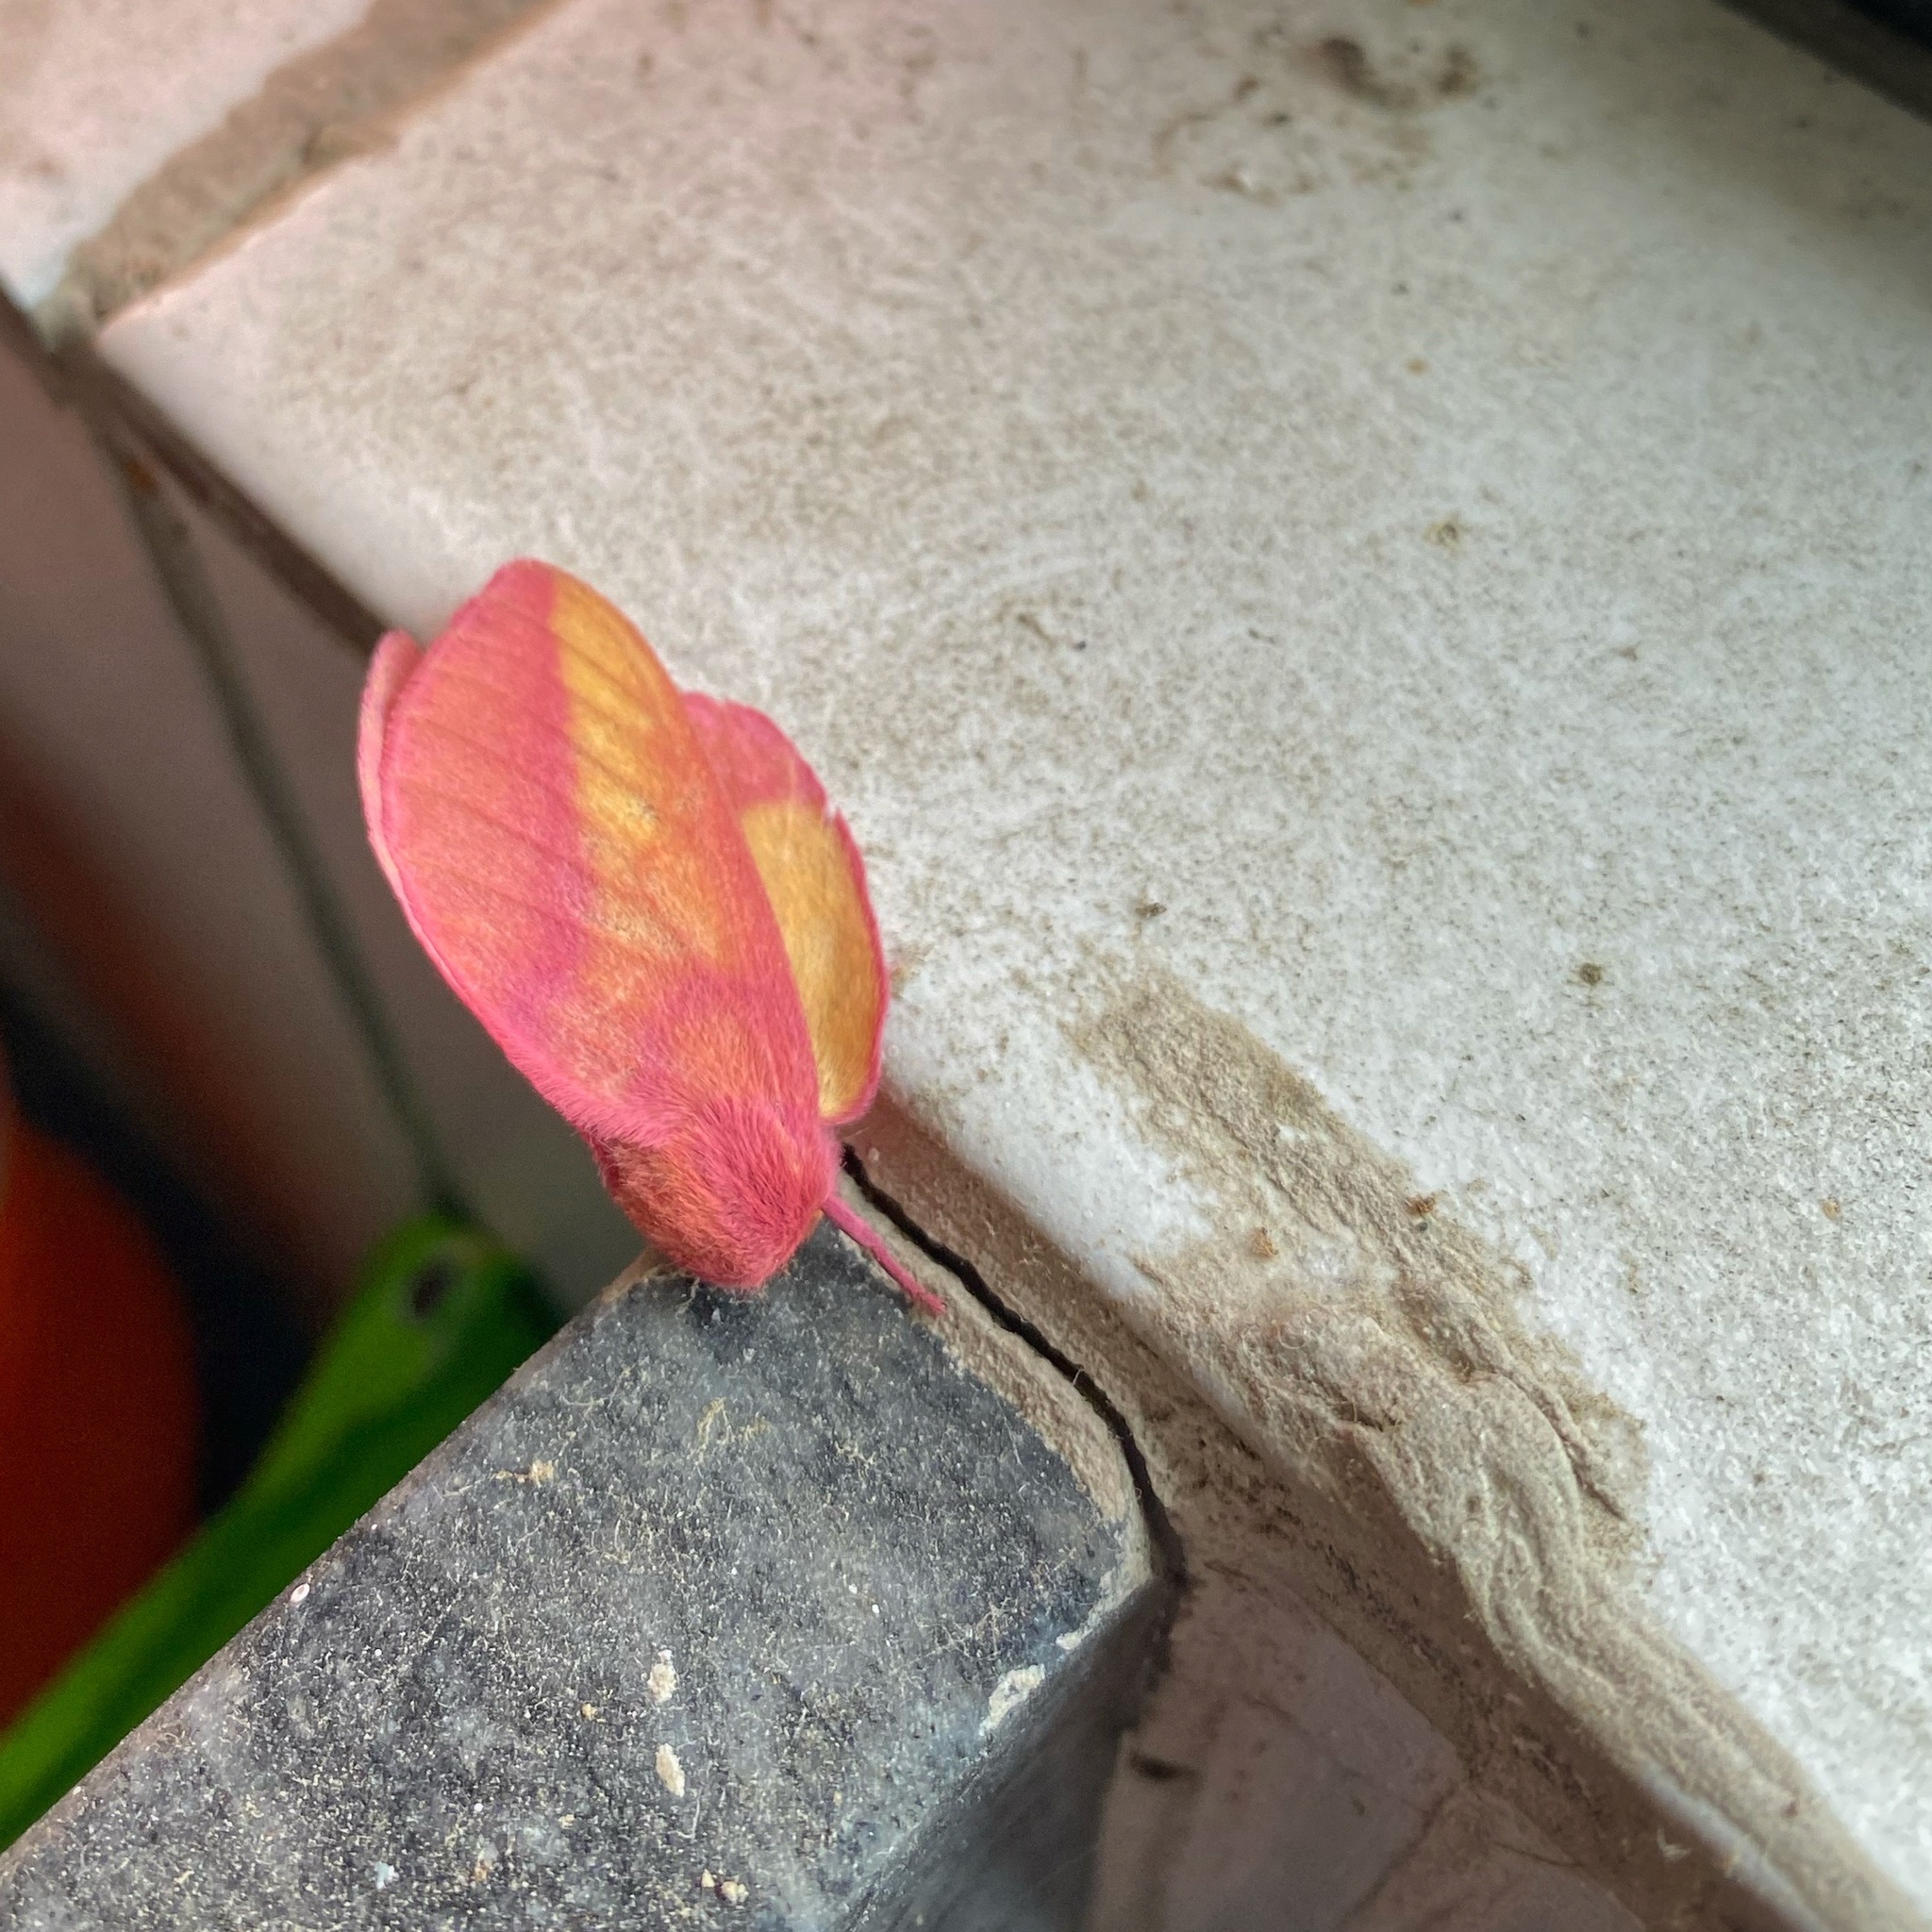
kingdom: Animalia
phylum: Arthropoda
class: Insecta
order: Lepidoptera
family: Saturniidae
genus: Psilopygida
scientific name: Psilopygida walkeri
